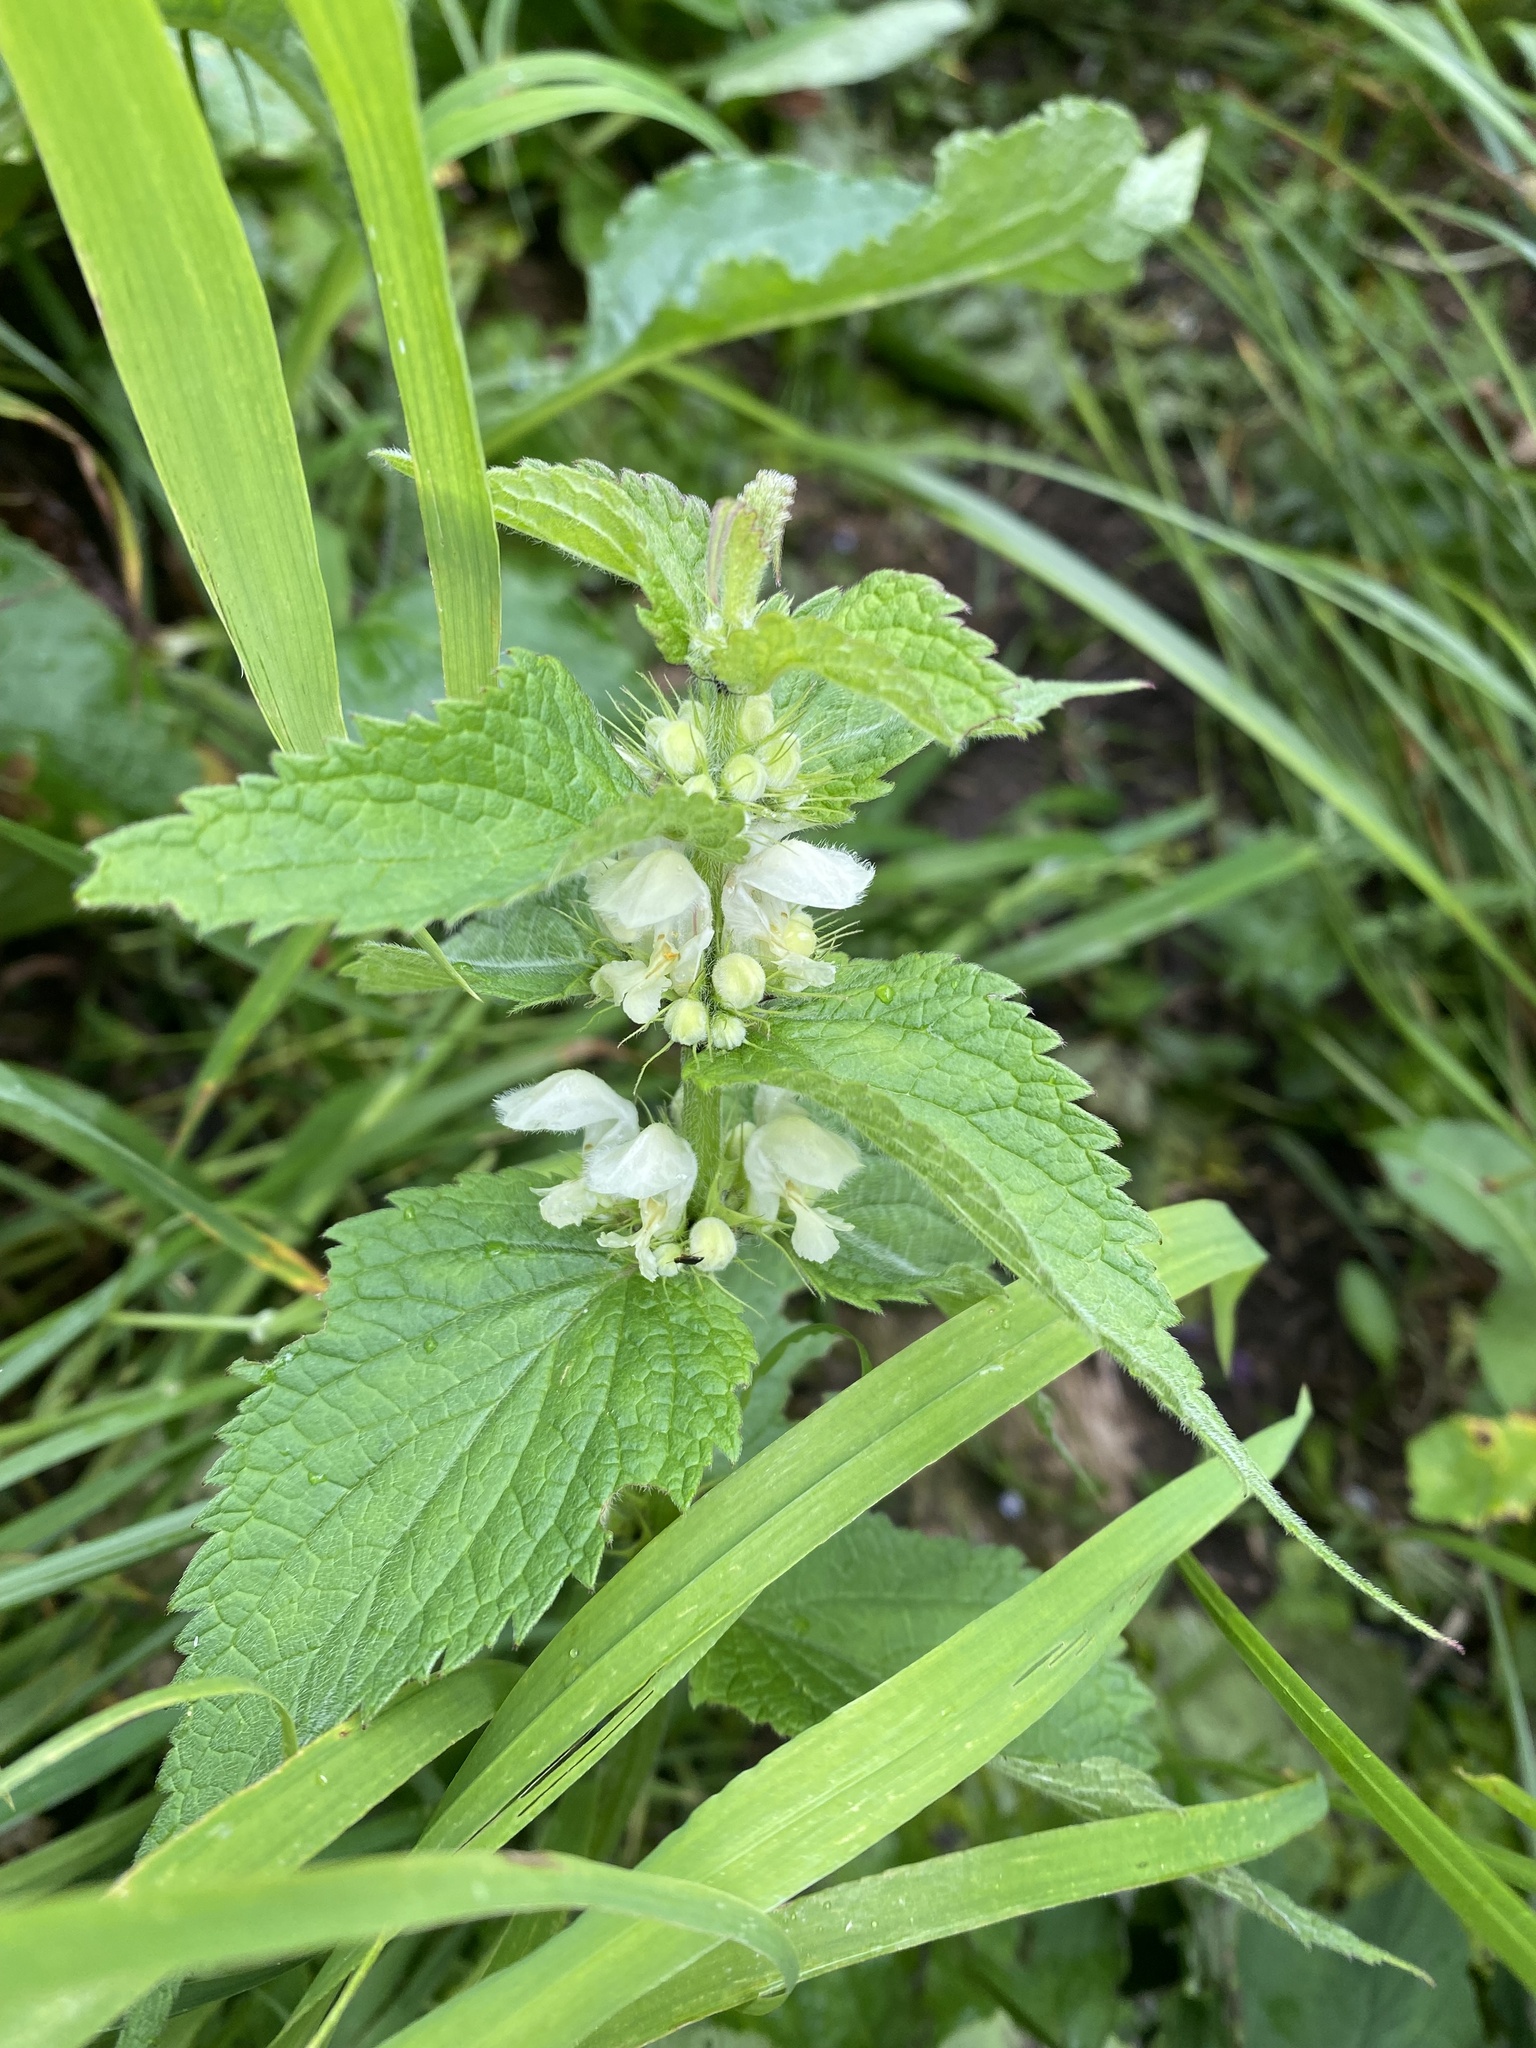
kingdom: Plantae
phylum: Tracheophyta
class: Magnoliopsida
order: Lamiales
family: Lamiaceae
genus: Lamium
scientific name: Lamium album
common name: White dead-nettle
